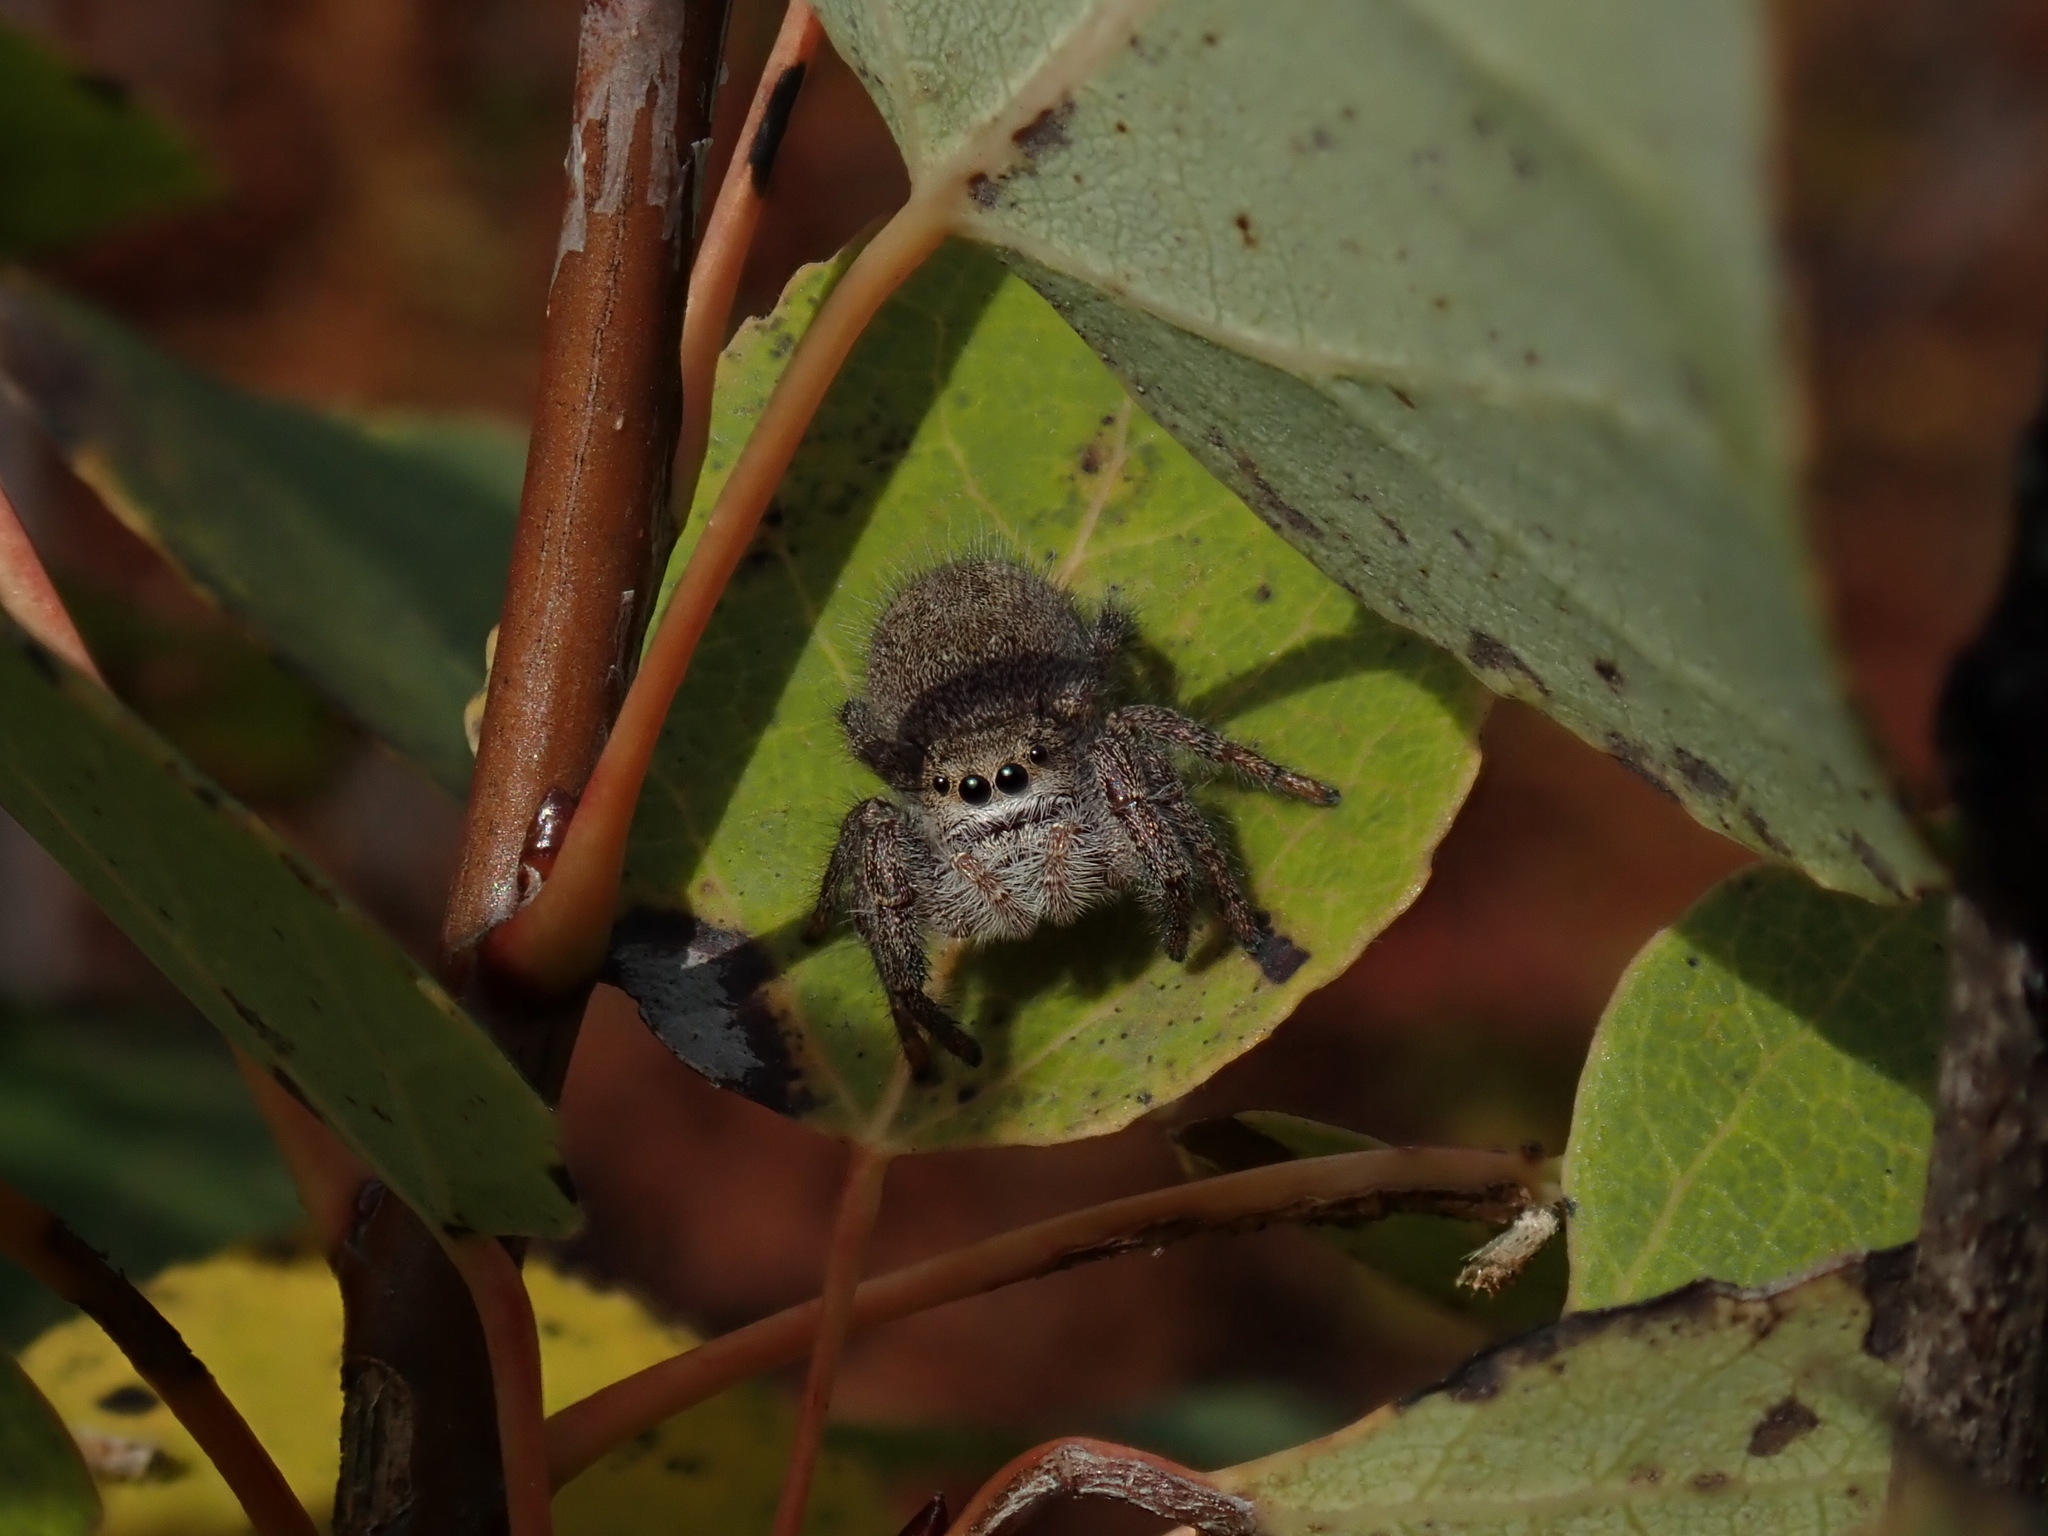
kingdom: Animalia
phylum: Arthropoda
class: Arachnida
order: Araneae
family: Salticidae
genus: Phidippus
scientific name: Phidippus princeps
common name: Grayish jumping spider
